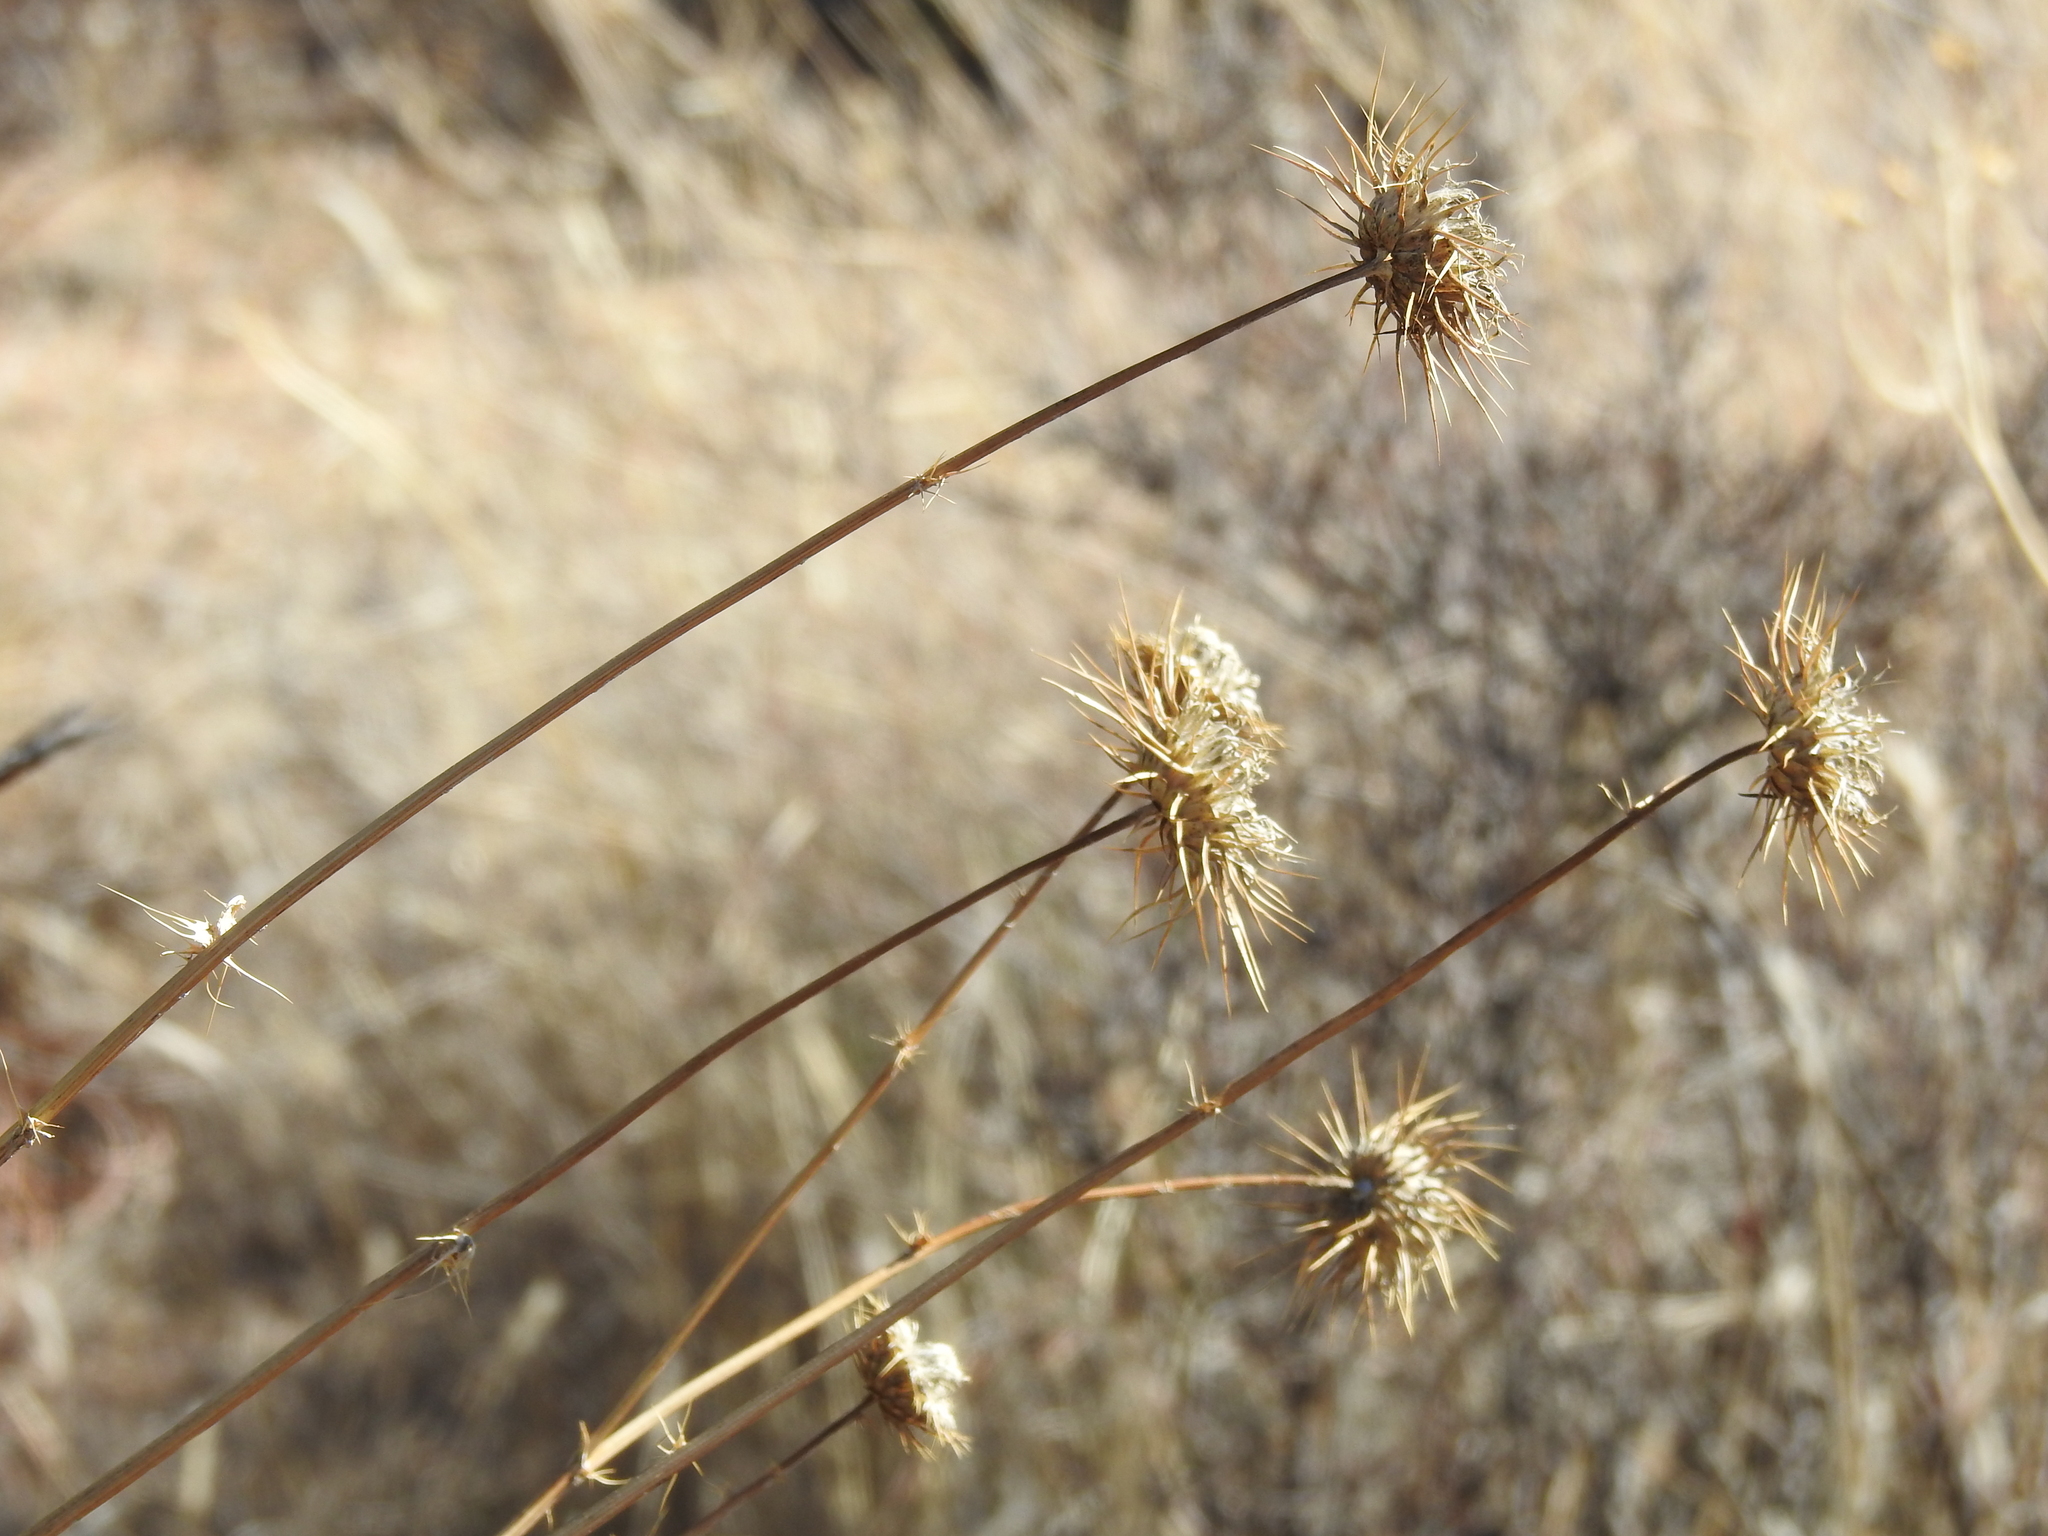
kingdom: Plantae
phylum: Tracheophyta
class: Magnoliopsida
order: Asterales
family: Asteraceae
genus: Cirsium
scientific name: Cirsium neomexicanum
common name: New mexico thistle
